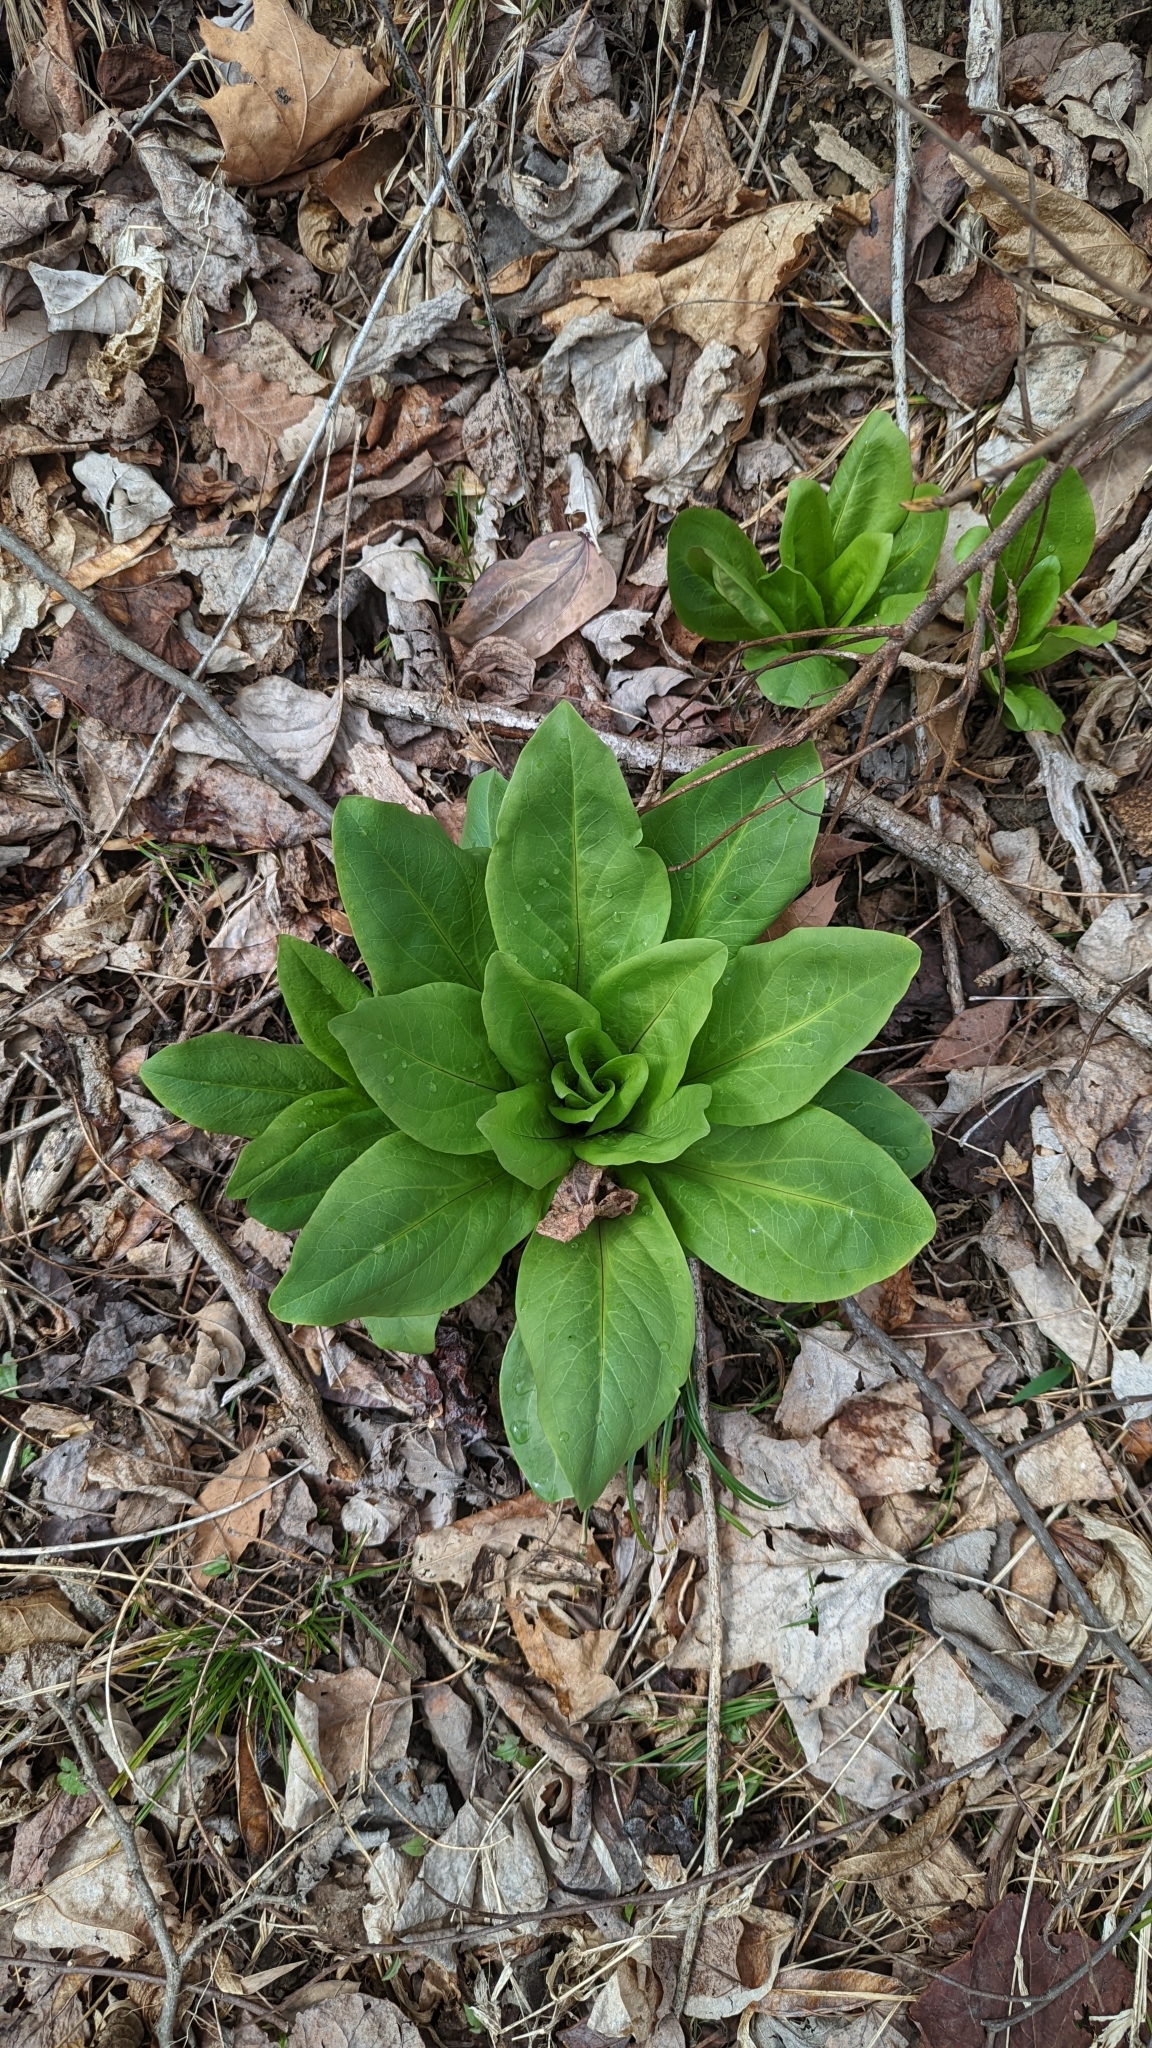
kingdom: Plantae
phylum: Tracheophyta
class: Magnoliopsida
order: Gentianales
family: Gentianaceae
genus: Frasera
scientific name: Frasera caroliniensis
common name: American columbo
